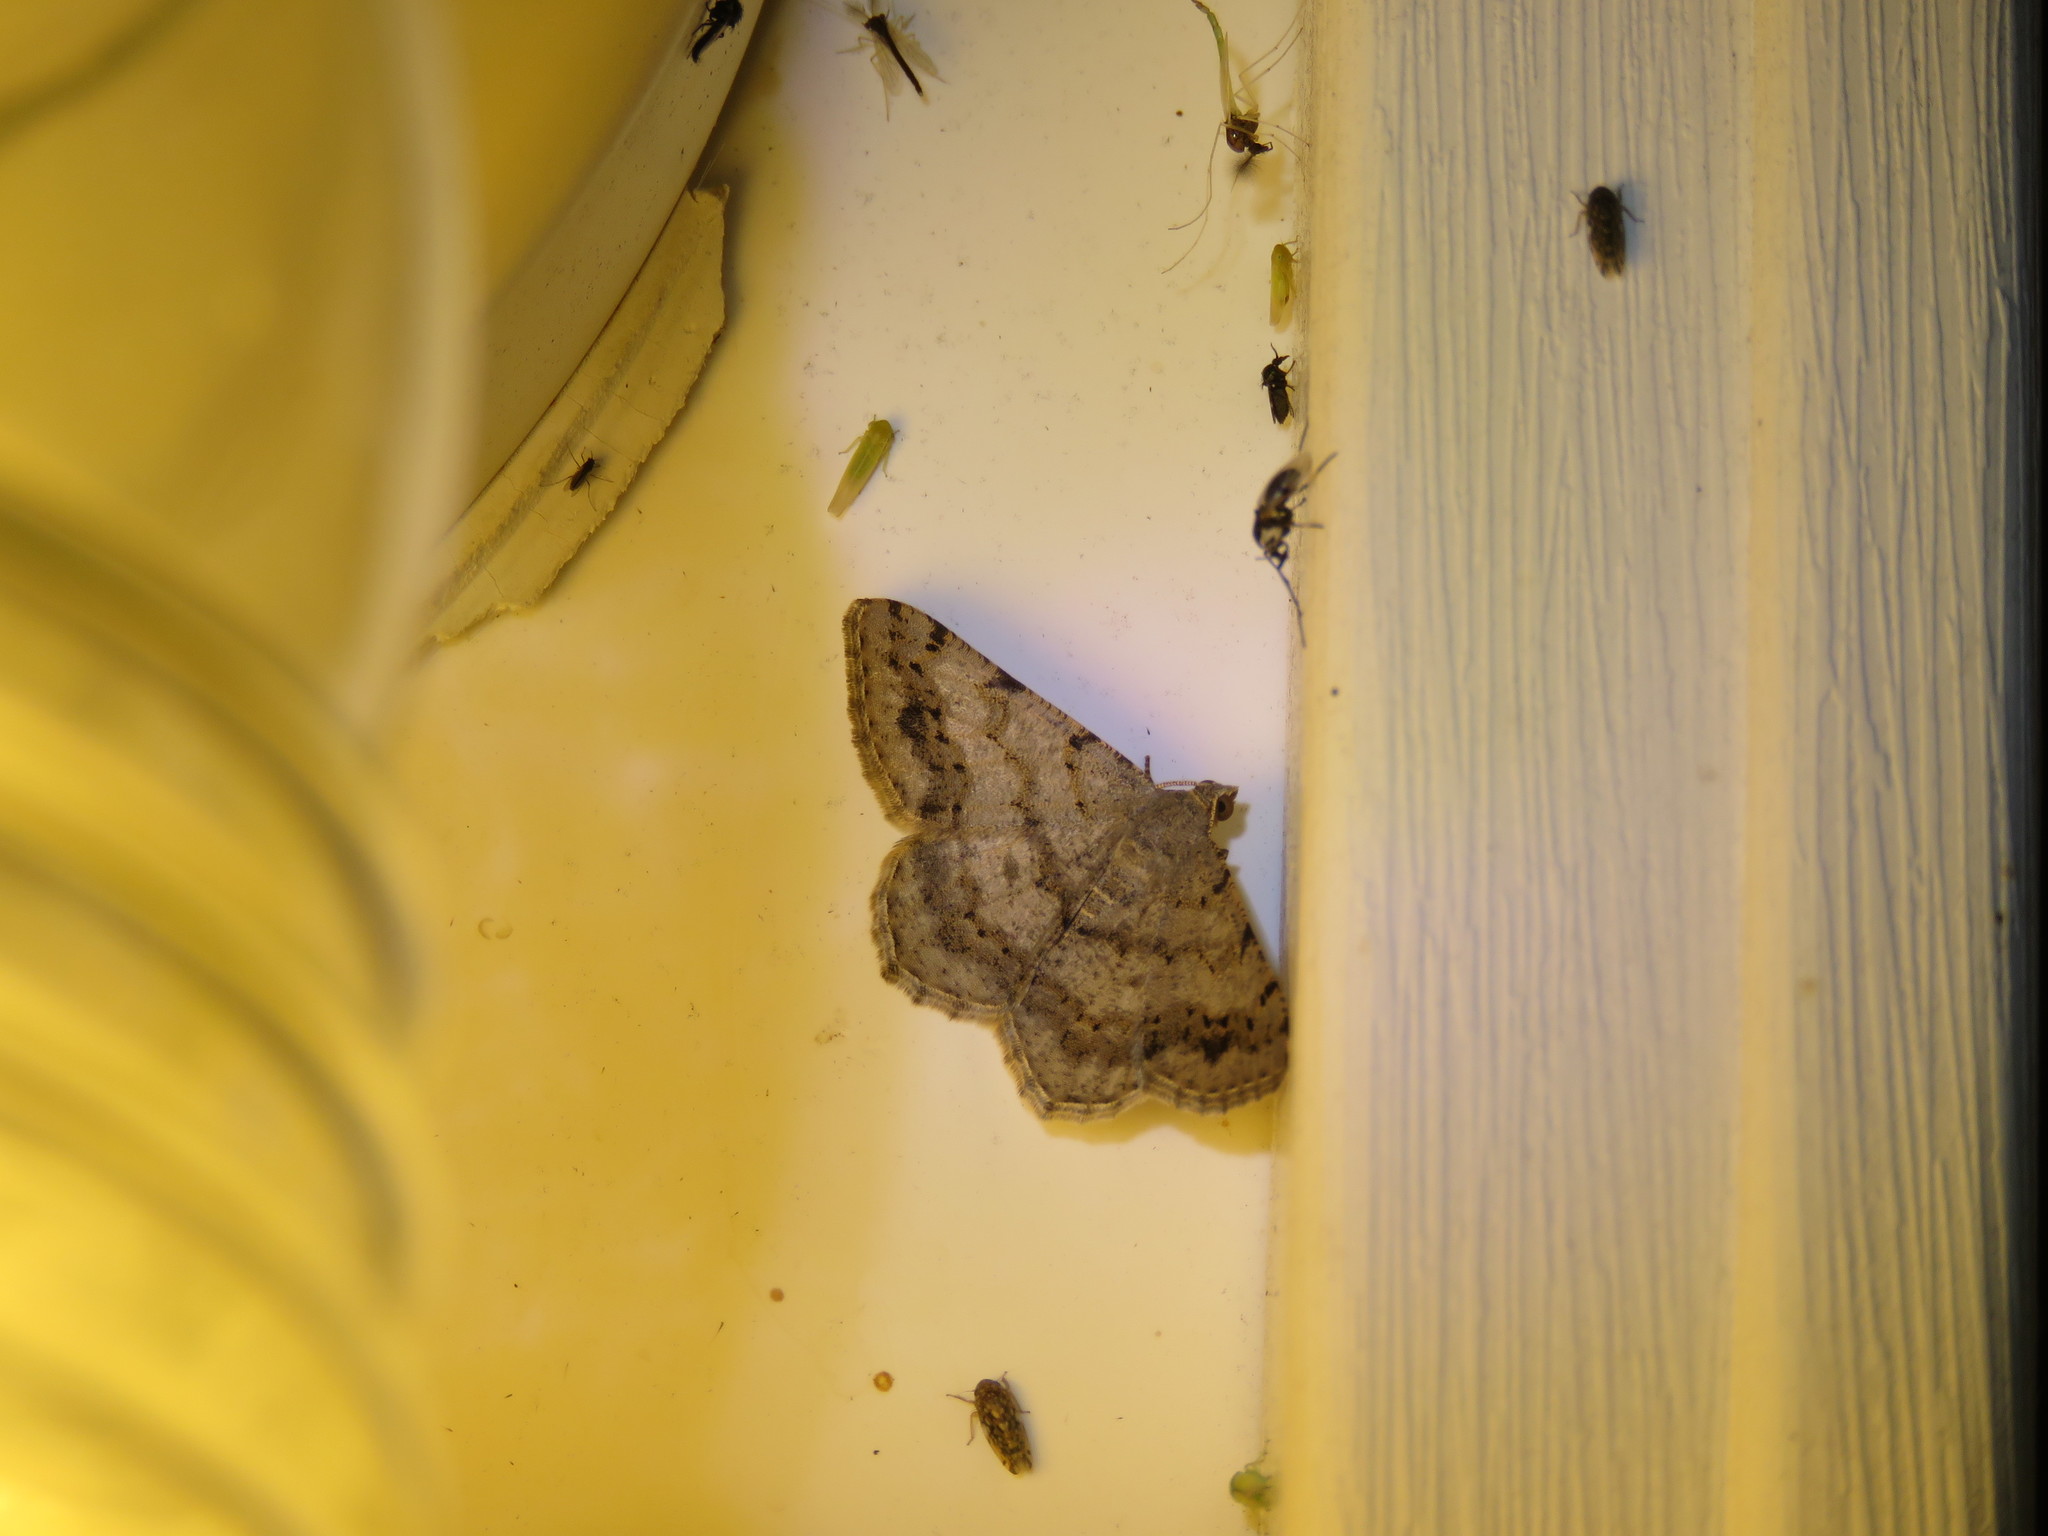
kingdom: Animalia
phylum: Arthropoda
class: Insecta
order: Lepidoptera
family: Geometridae
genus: Digrammia
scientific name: Digrammia ocellinata
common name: Faint-spotted angle
